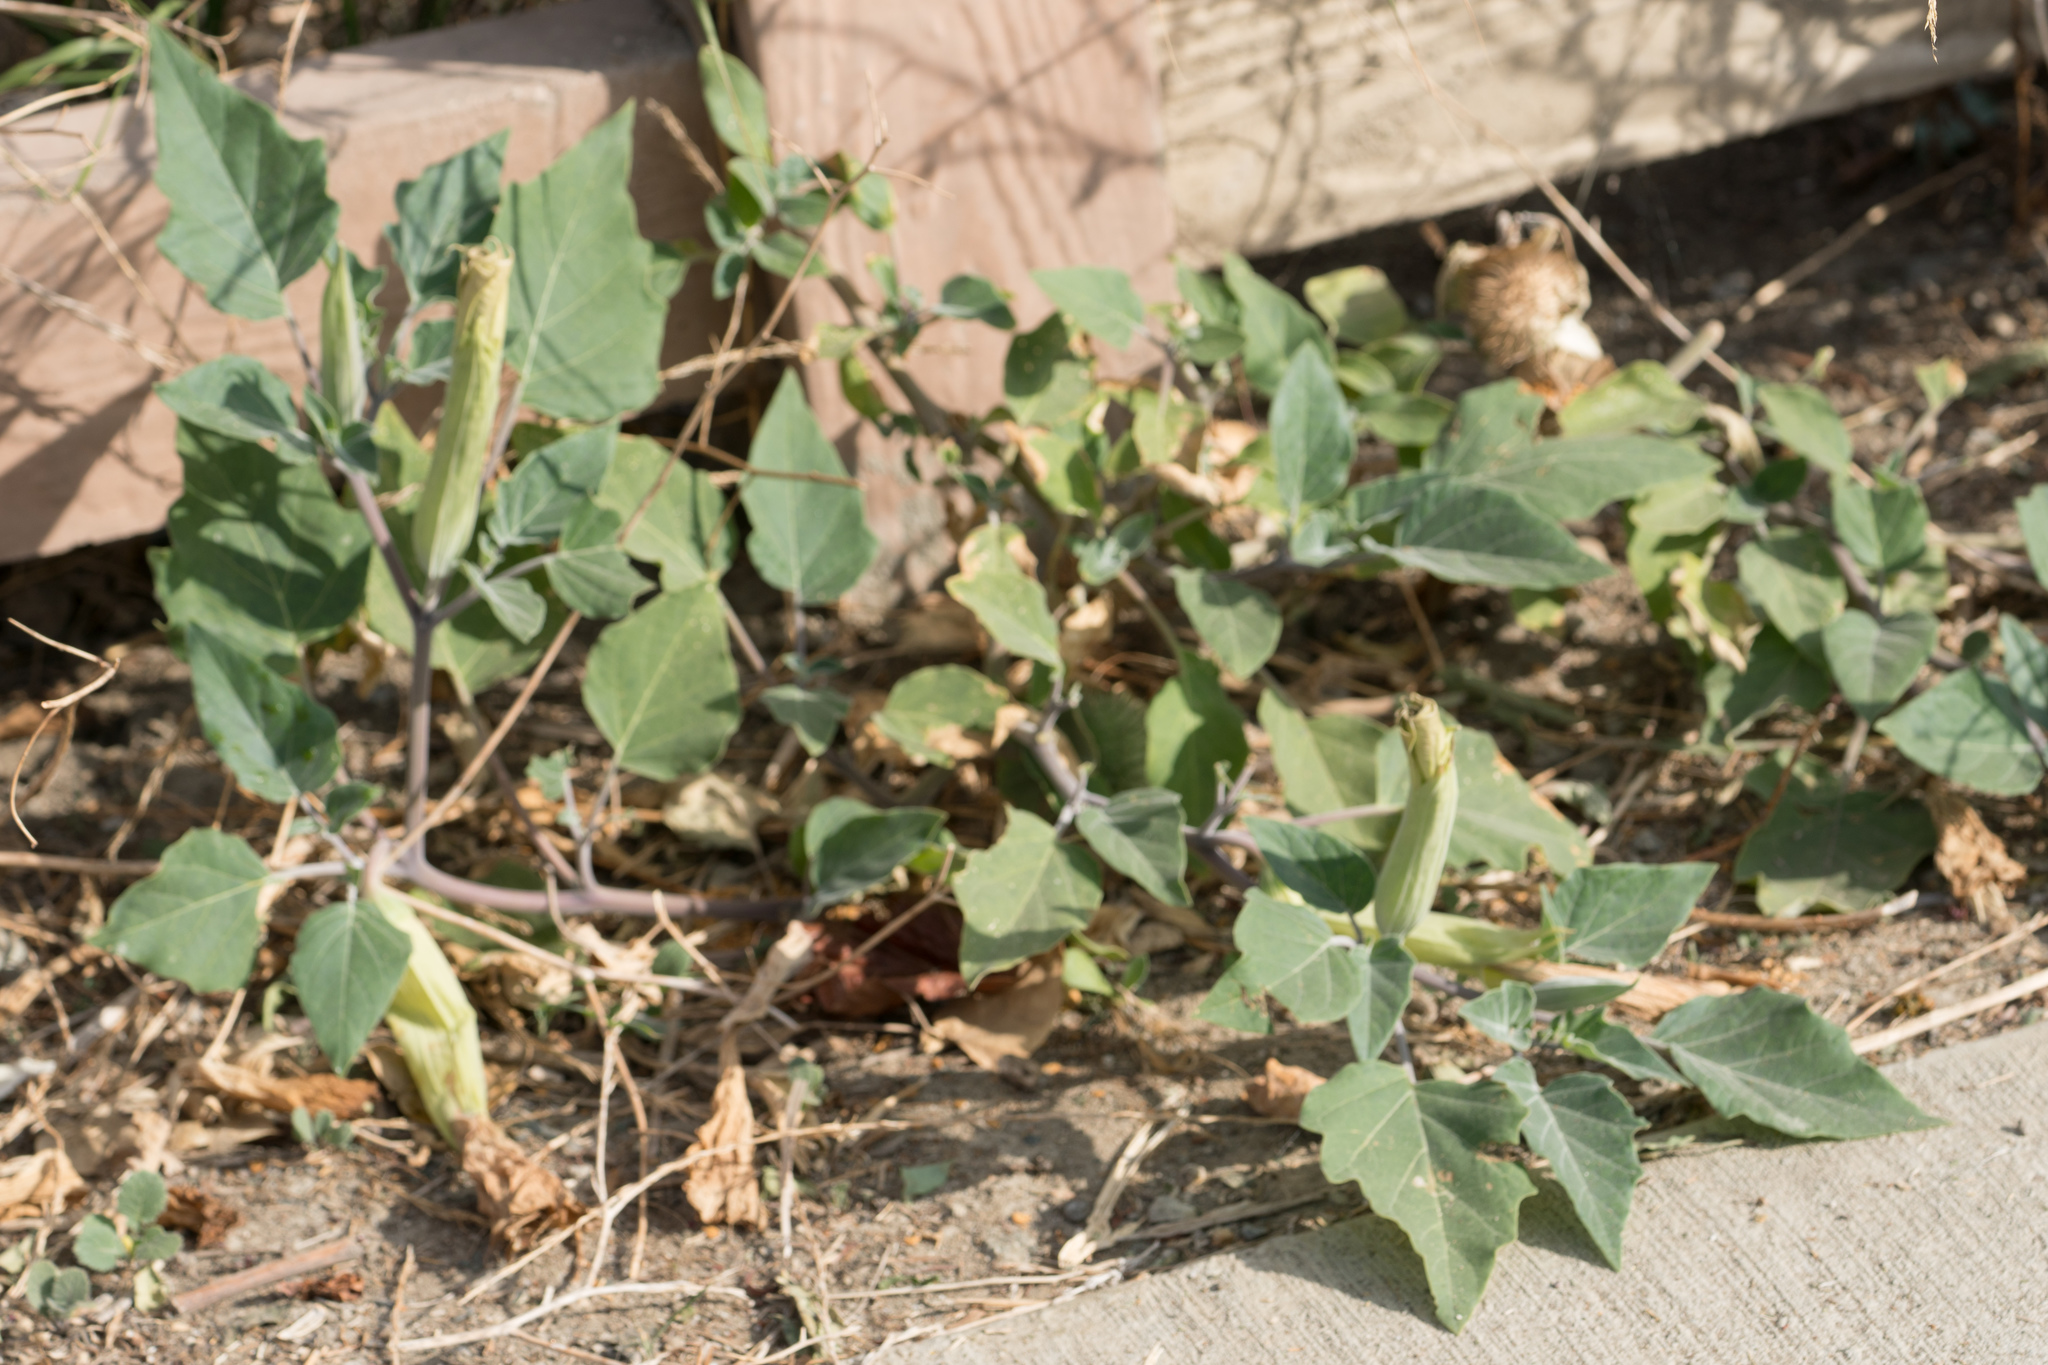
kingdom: Plantae
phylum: Tracheophyta
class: Magnoliopsida
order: Solanales
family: Solanaceae
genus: Datura
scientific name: Datura wrightii
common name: Sacred thorn-apple
